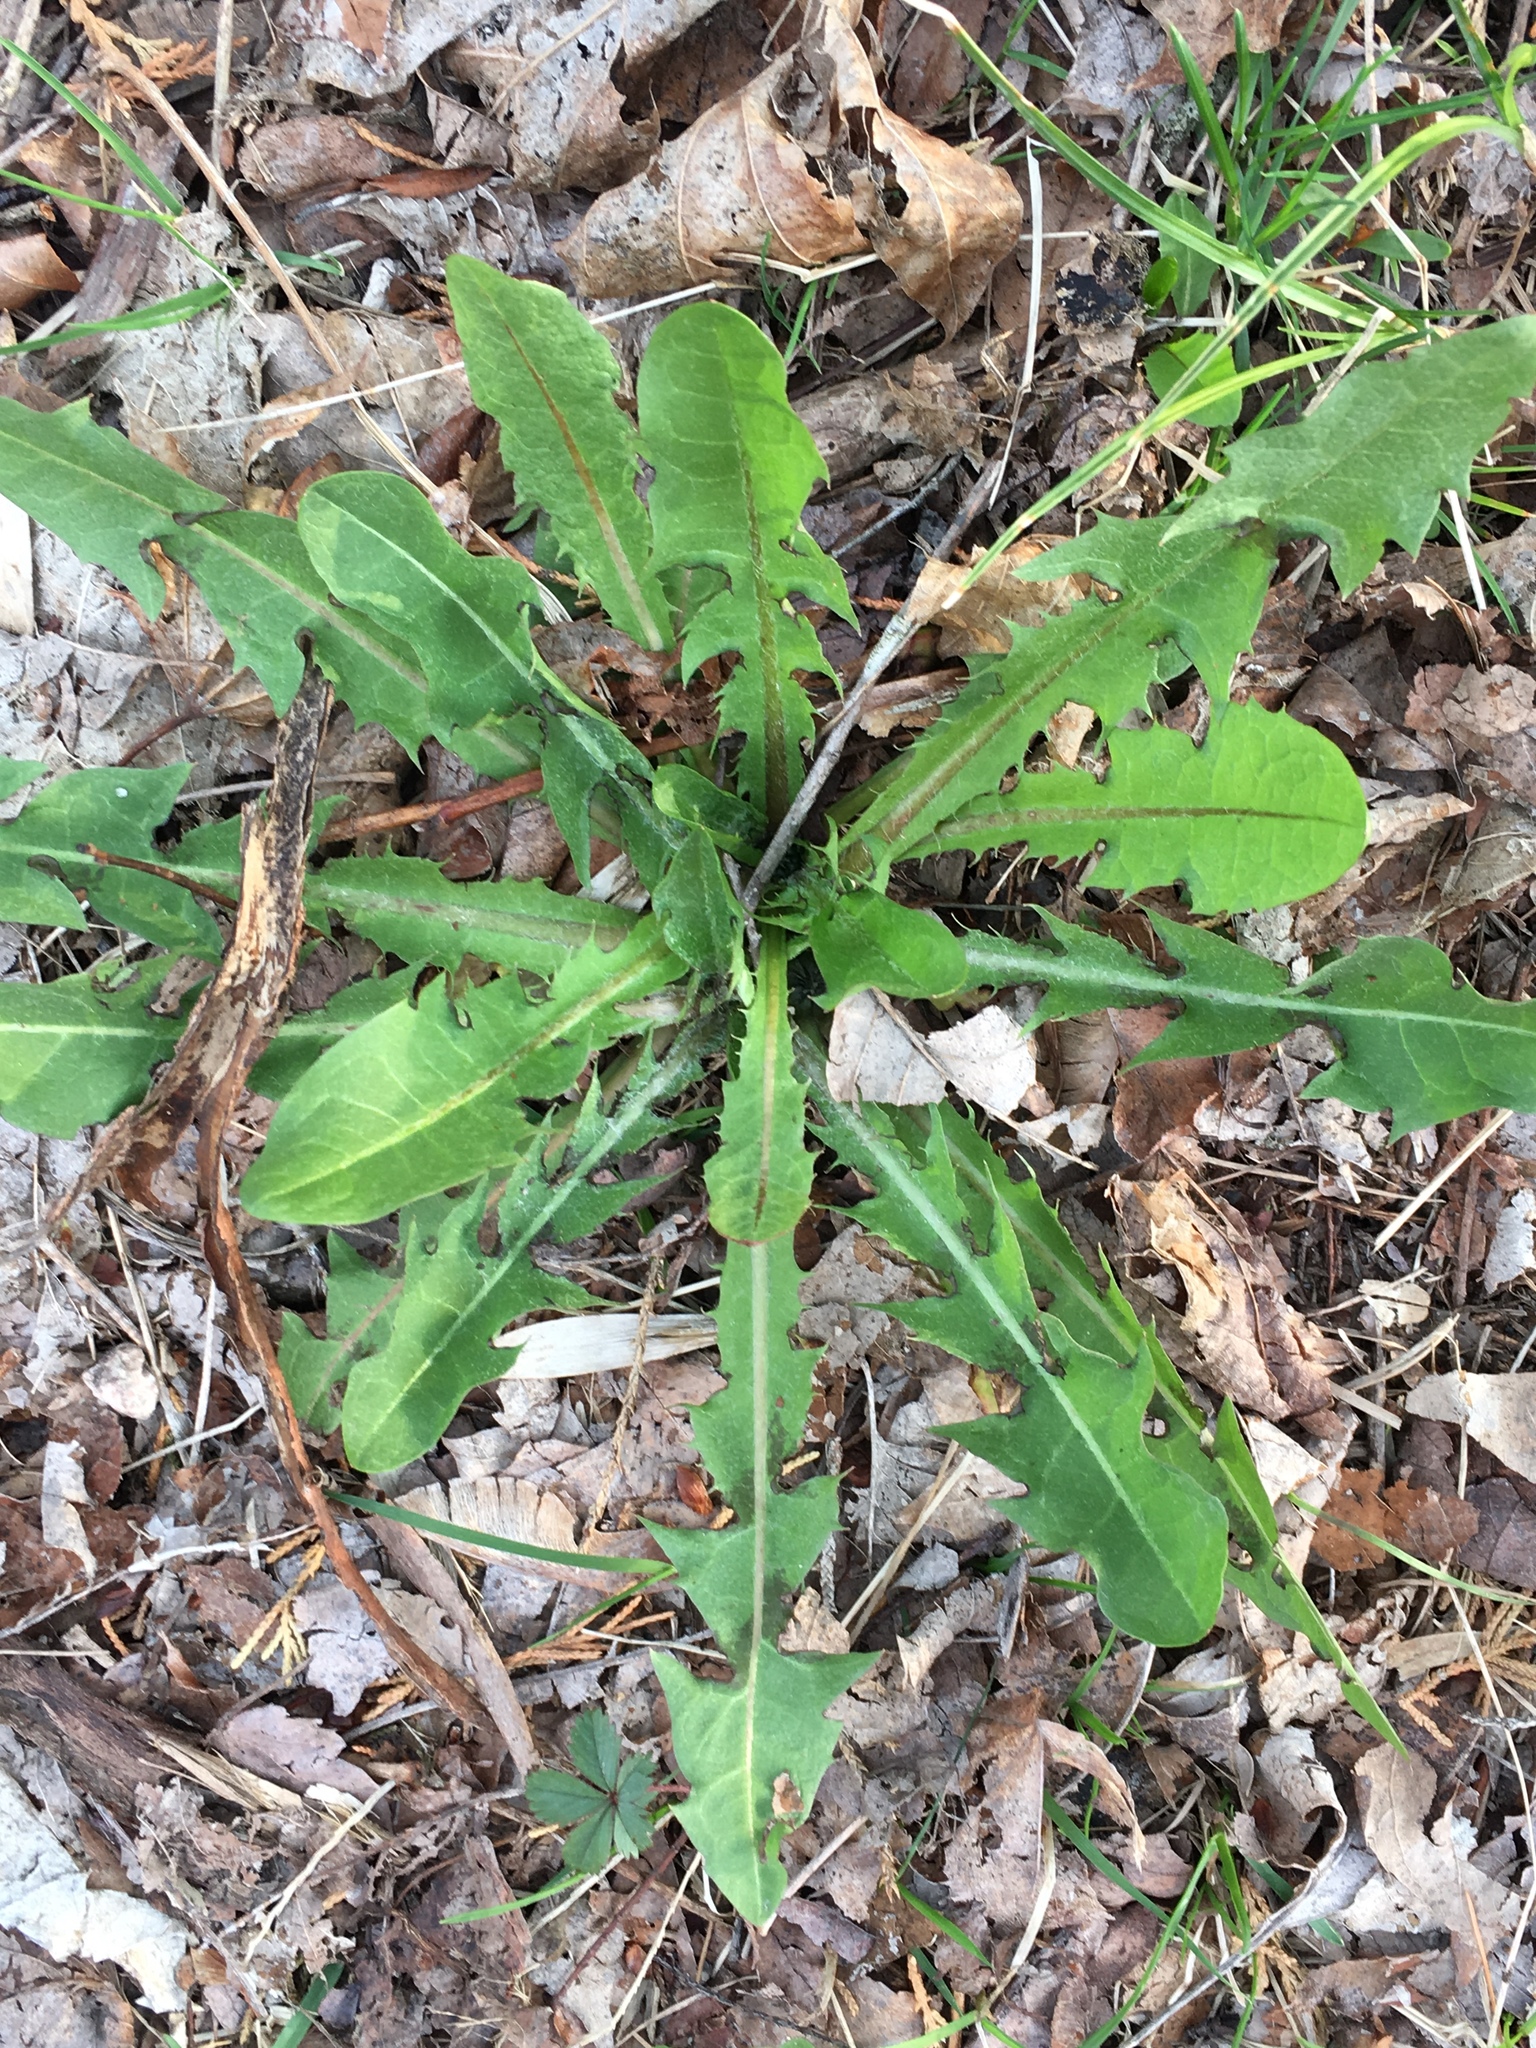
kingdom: Plantae
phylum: Tracheophyta
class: Magnoliopsida
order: Asterales
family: Asteraceae
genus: Taraxacum
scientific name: Taraxacum officinale
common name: Common dandelion
